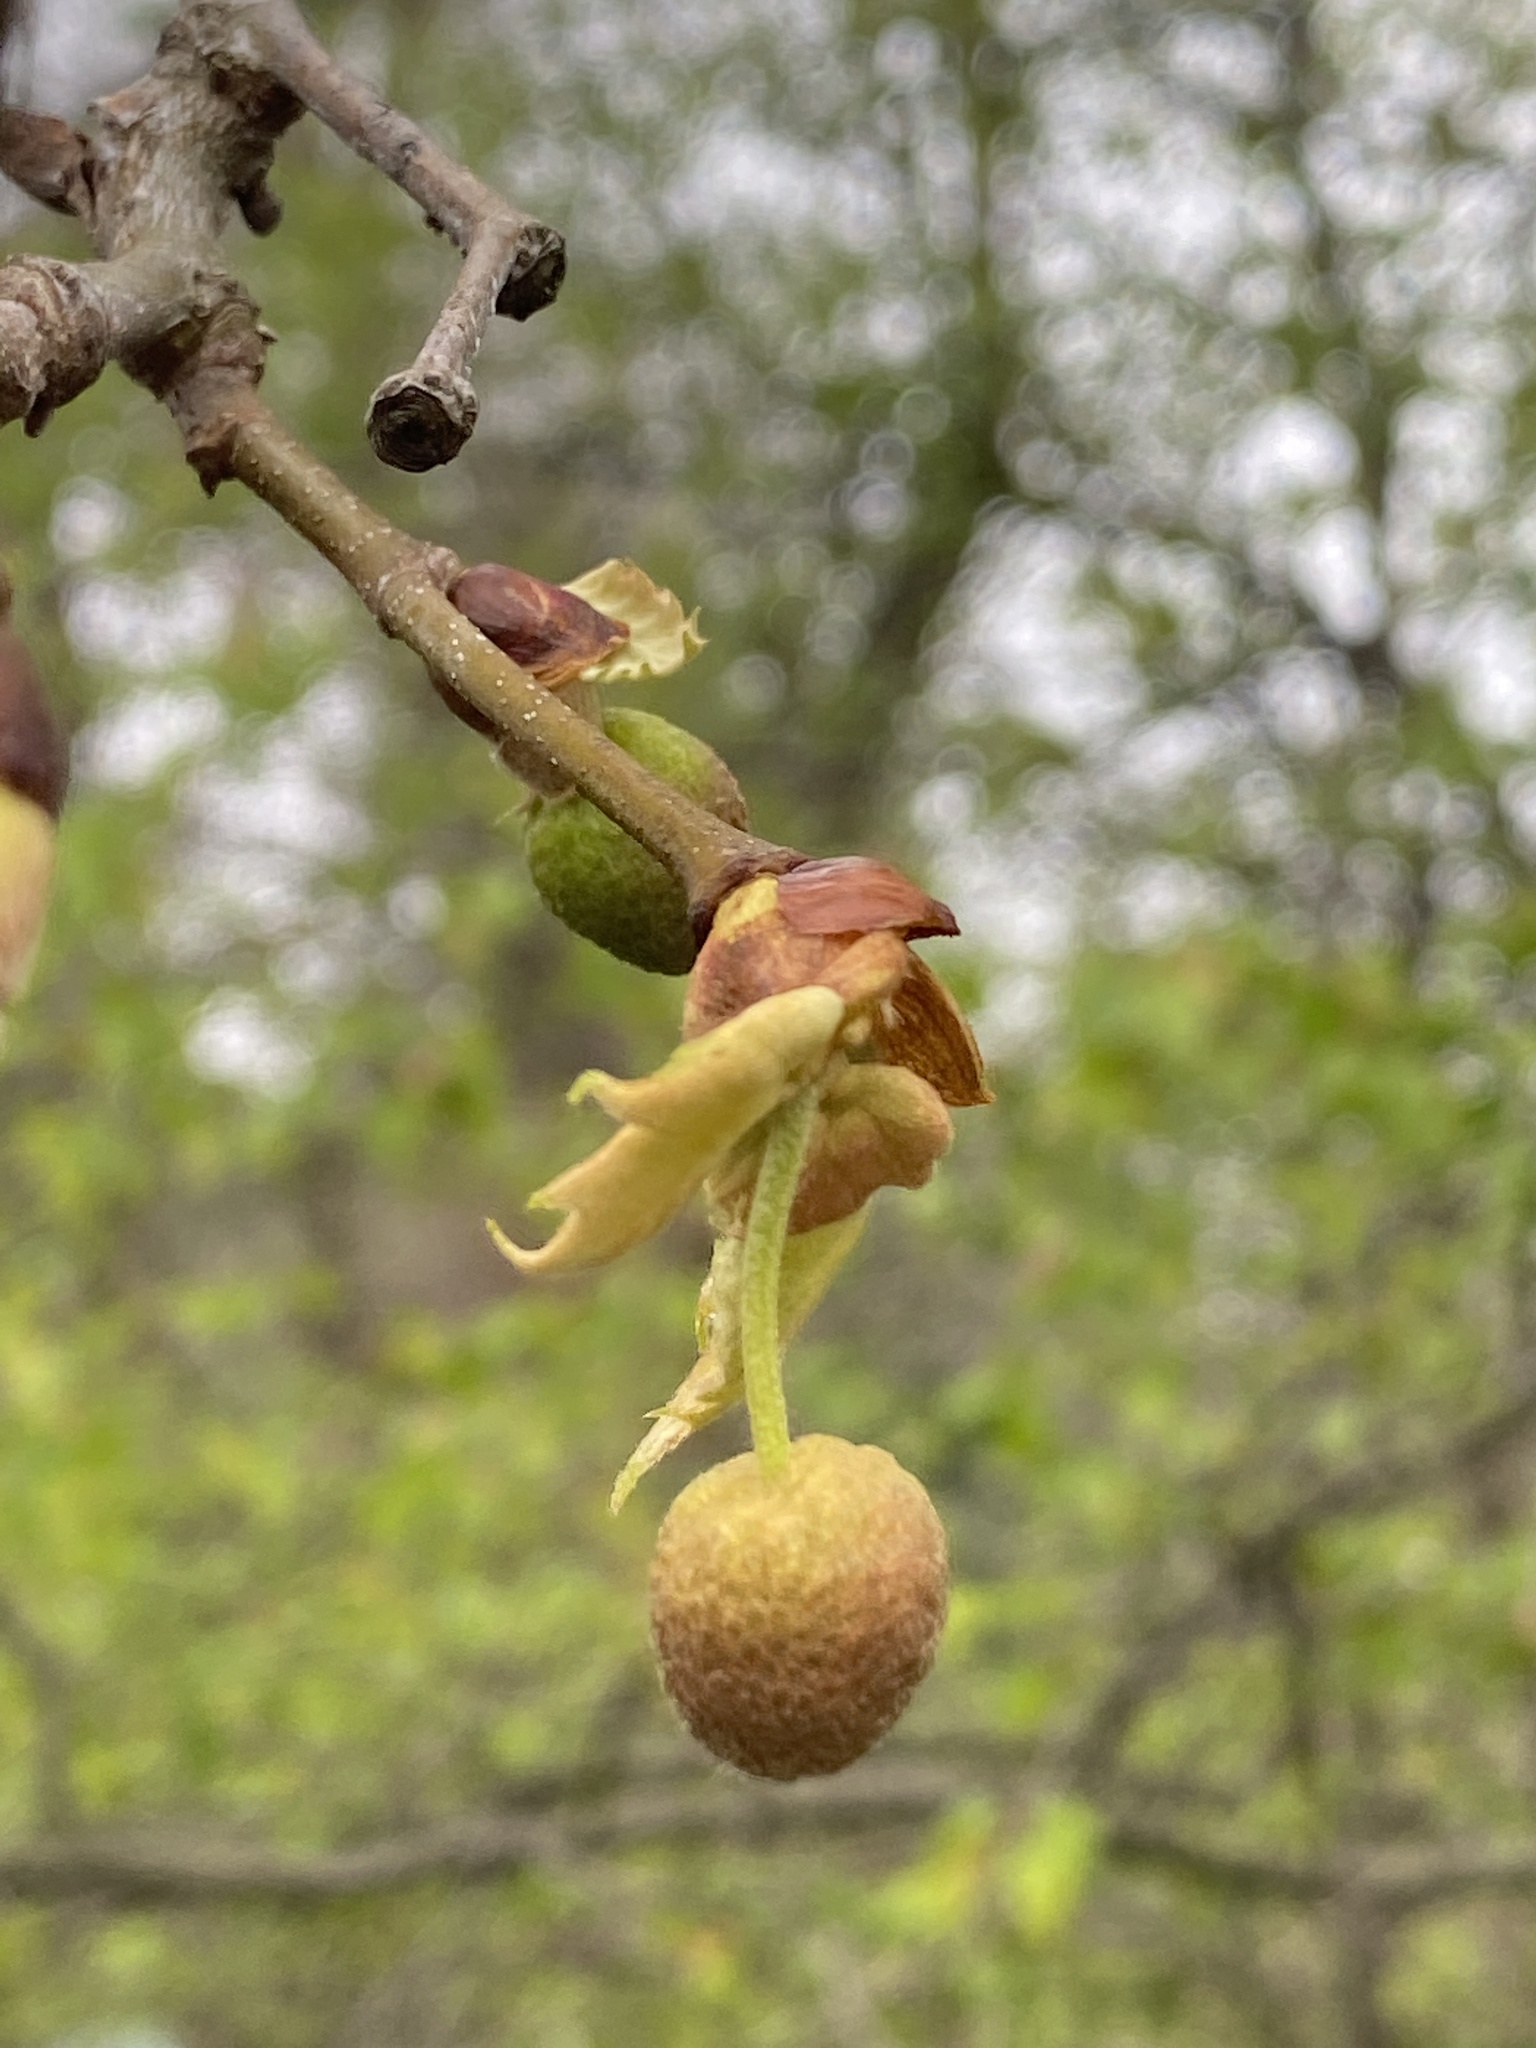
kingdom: Plantae
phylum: Tracheophyta
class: Magnoliopsida
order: Proteales
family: Platanaceae
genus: Platanus
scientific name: Platanus occidentalis
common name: American sycamore
